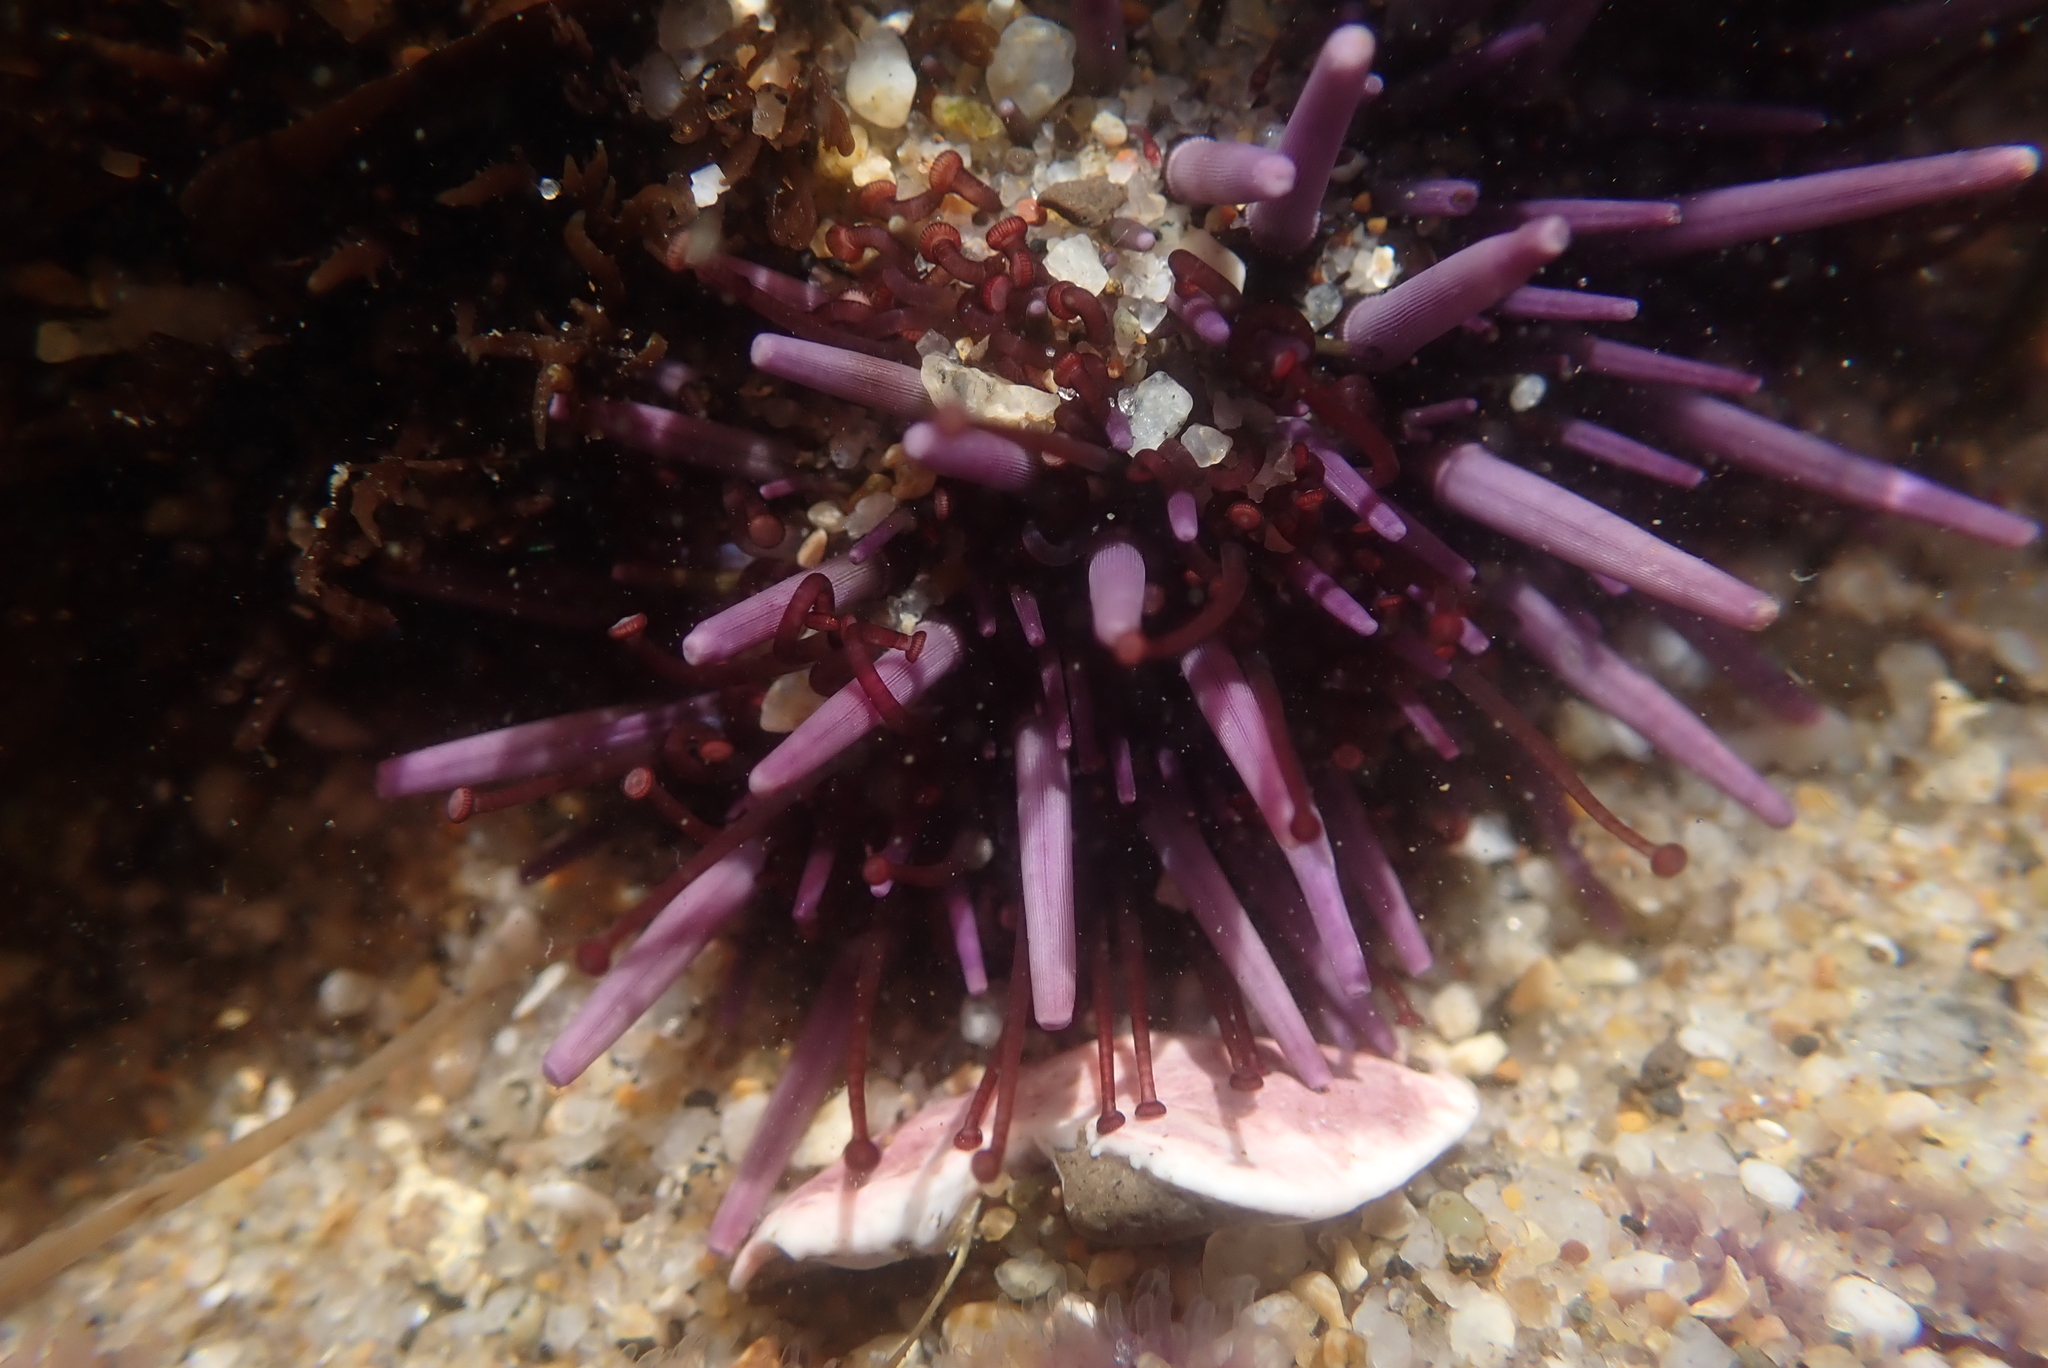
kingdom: Animalia
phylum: Echinodermata
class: Echinoidea
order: Camarodonta
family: Strongylocentrotidae
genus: Strongylocentrotus
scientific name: Strongylocentrotus purpuratus
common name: Purple sea urchin
